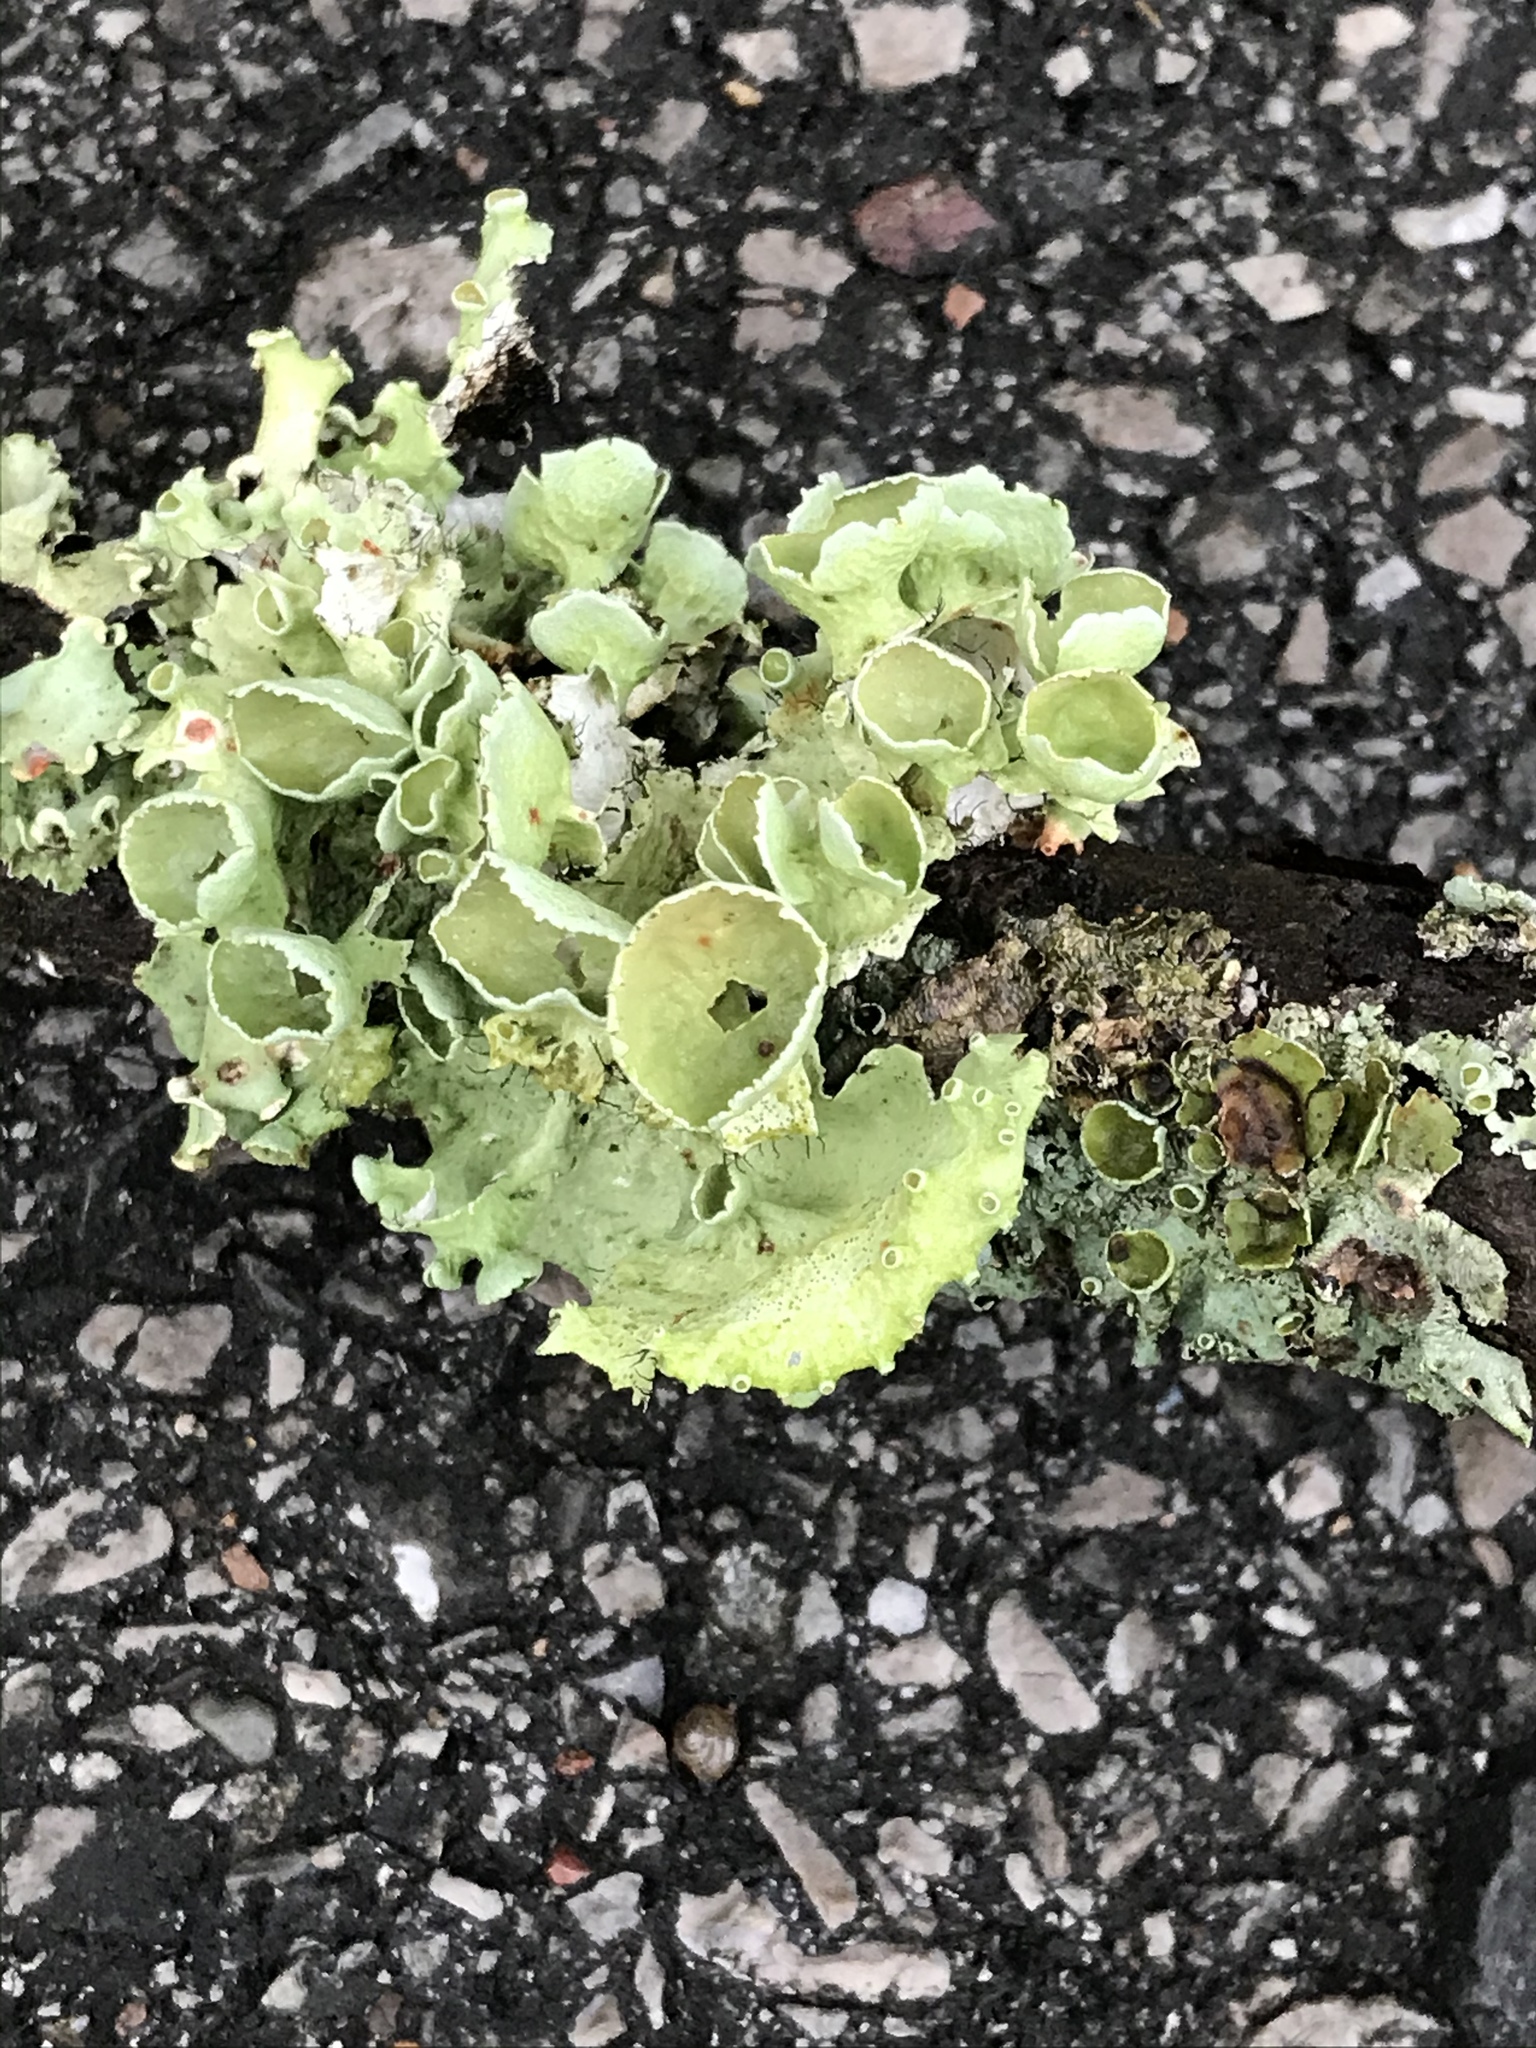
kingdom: Fungi
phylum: Ascomycota
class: Lecanoromycetes
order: Lecanorales
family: Parmeliaceae
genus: Parmotrema
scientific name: Parmotrema perforatum
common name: Perforated ruffle lichen
